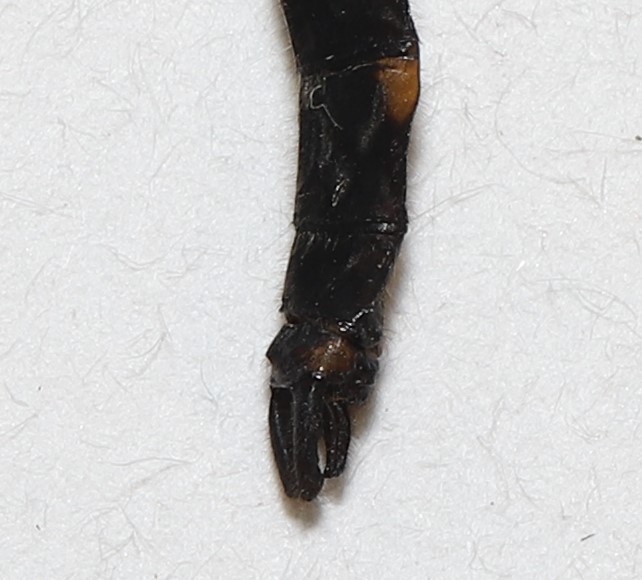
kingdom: Animalia
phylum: Arthropoda
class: Insecta
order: Odonata
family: Corduliidae
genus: Helocordulia
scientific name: Helocordulia uhleri
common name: Uhler's sundragon
